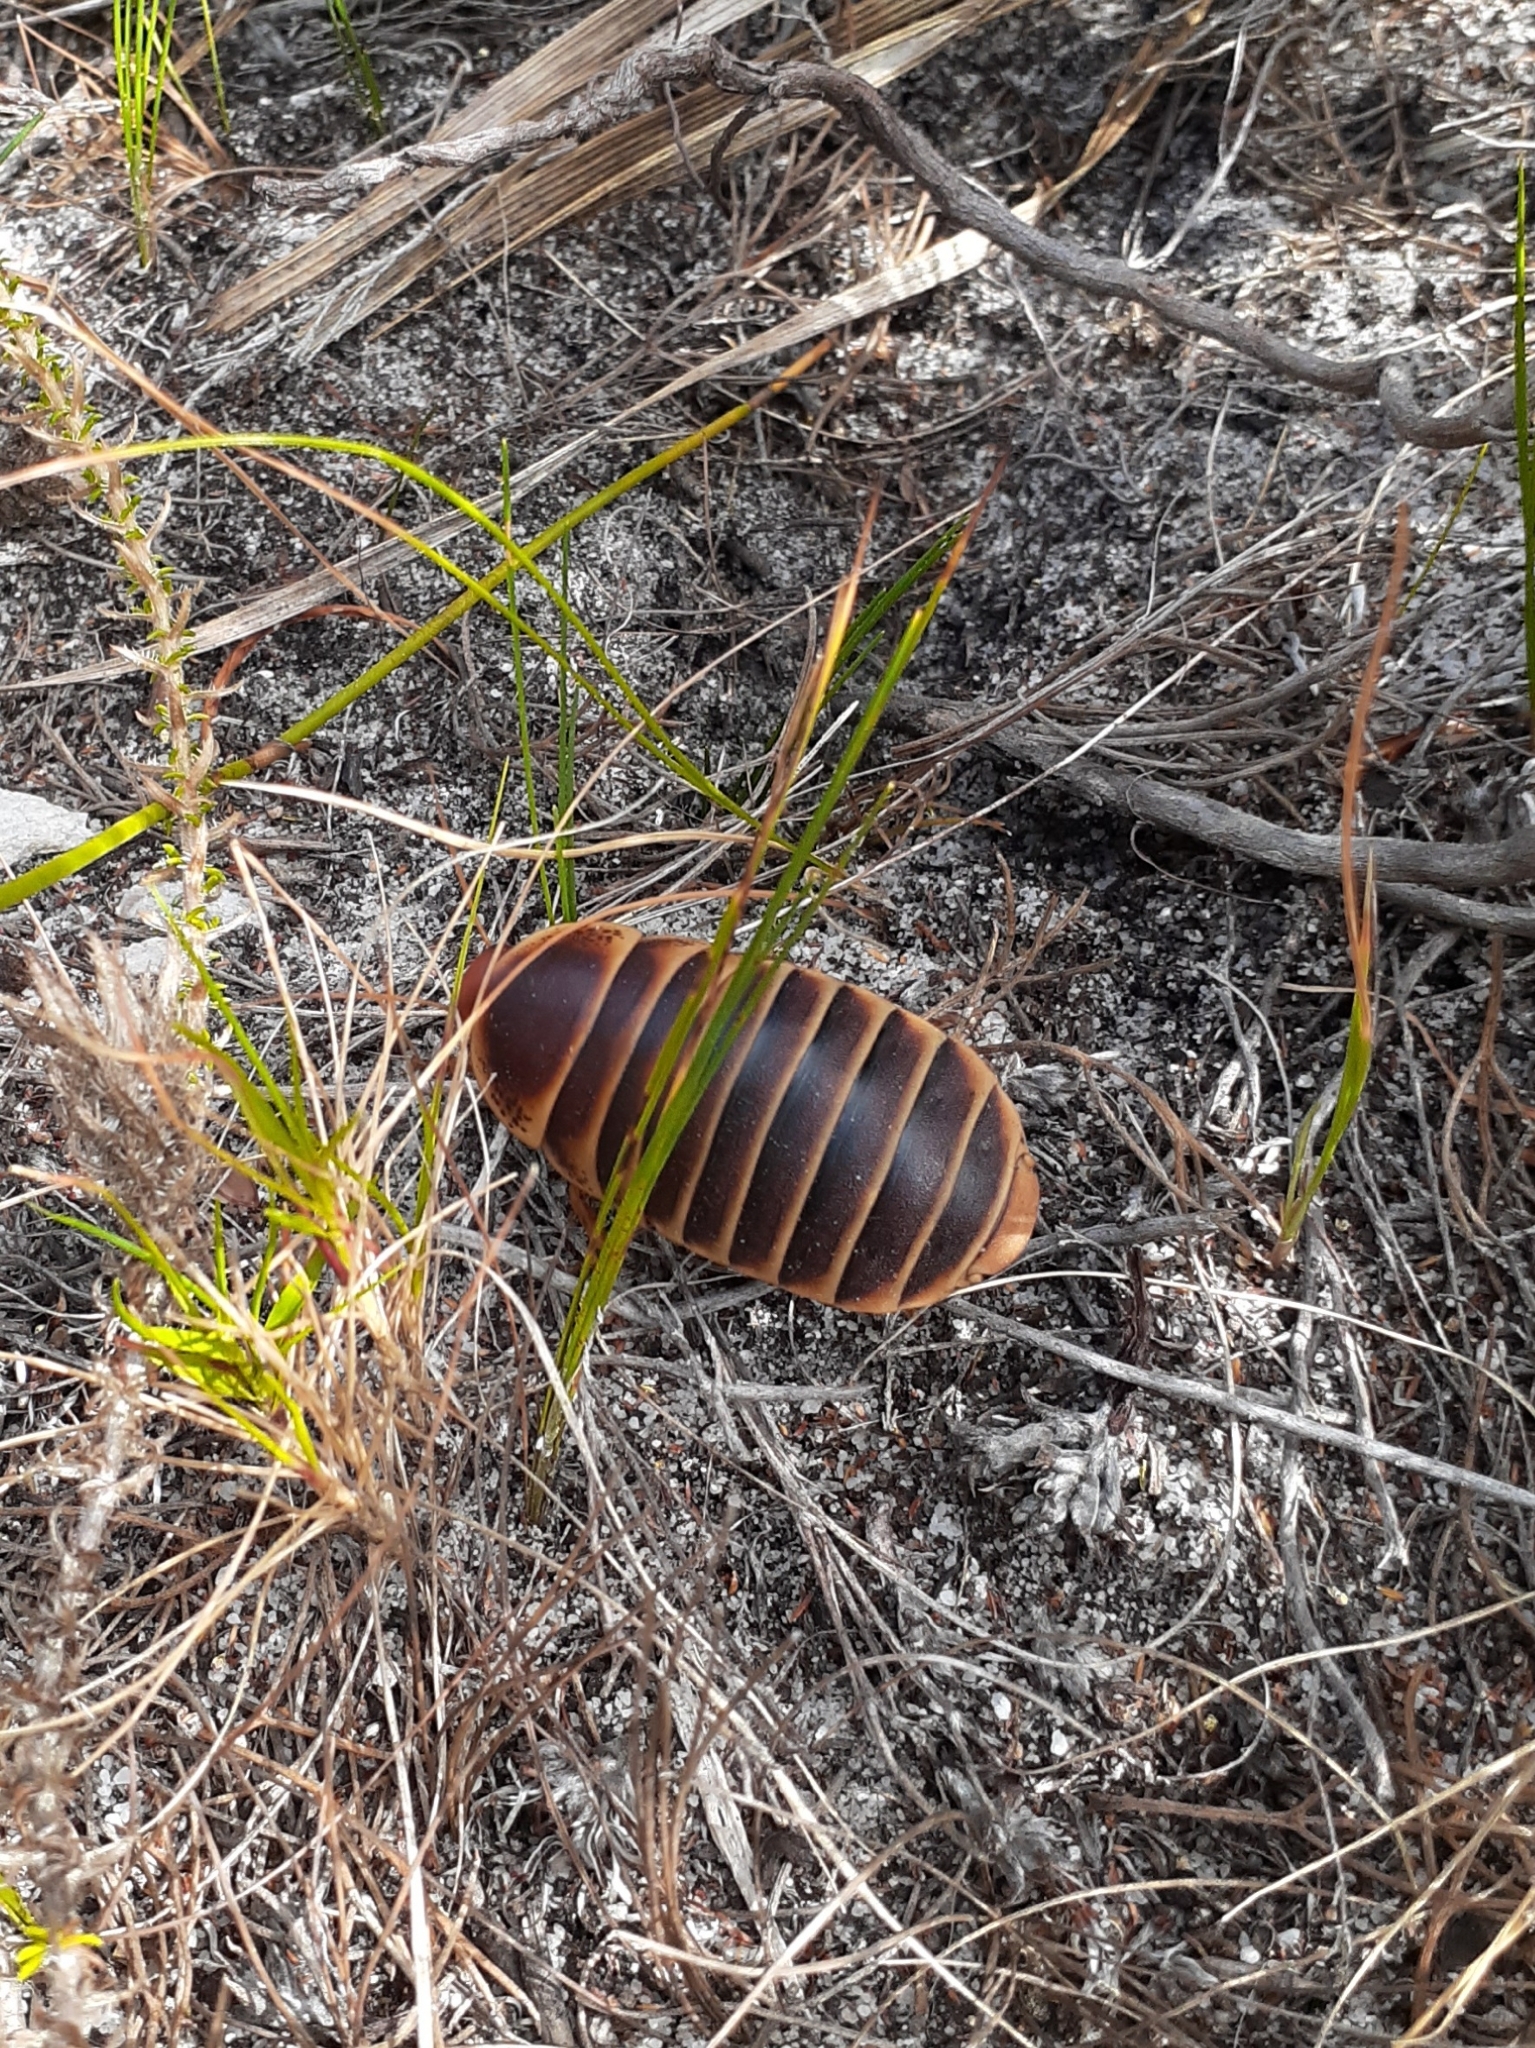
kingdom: Animalia
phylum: Arthropoda
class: Insecta
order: Blattodea
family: Blaberidae
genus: Aptera
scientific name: Aptera fusca
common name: Cape mountain cockroach
